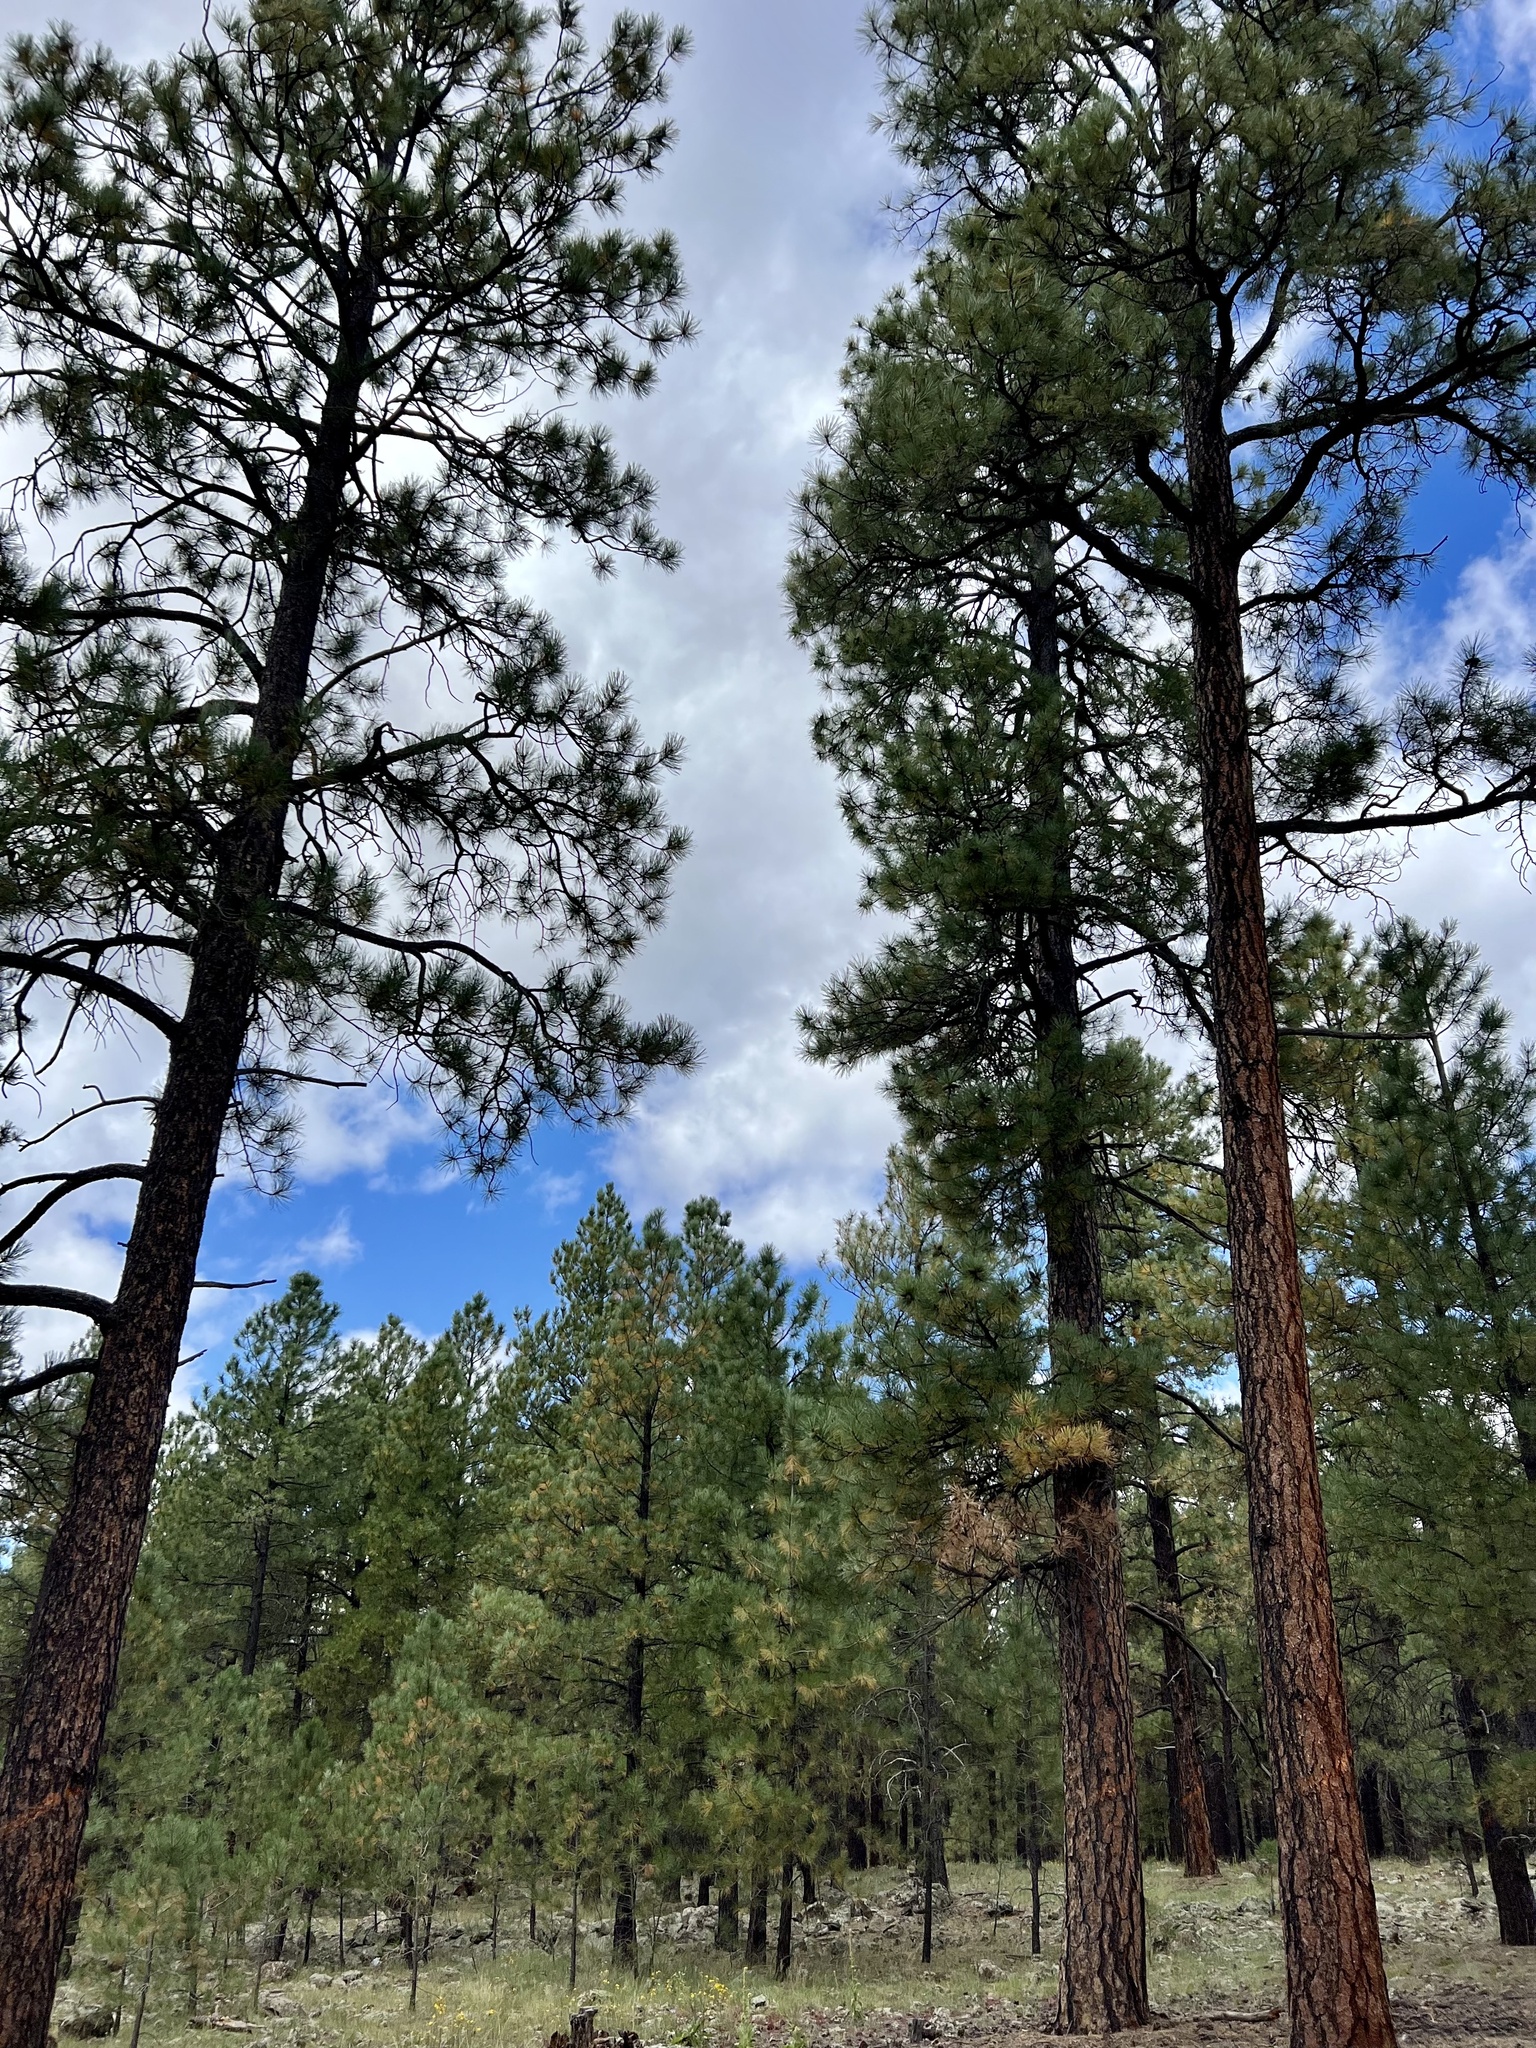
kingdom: Plantae
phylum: Tracheophyta
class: Pinopsida
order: Pinales
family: Pinaceae
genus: Pinus
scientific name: Pinus ponderosa
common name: Western yellow-pine
